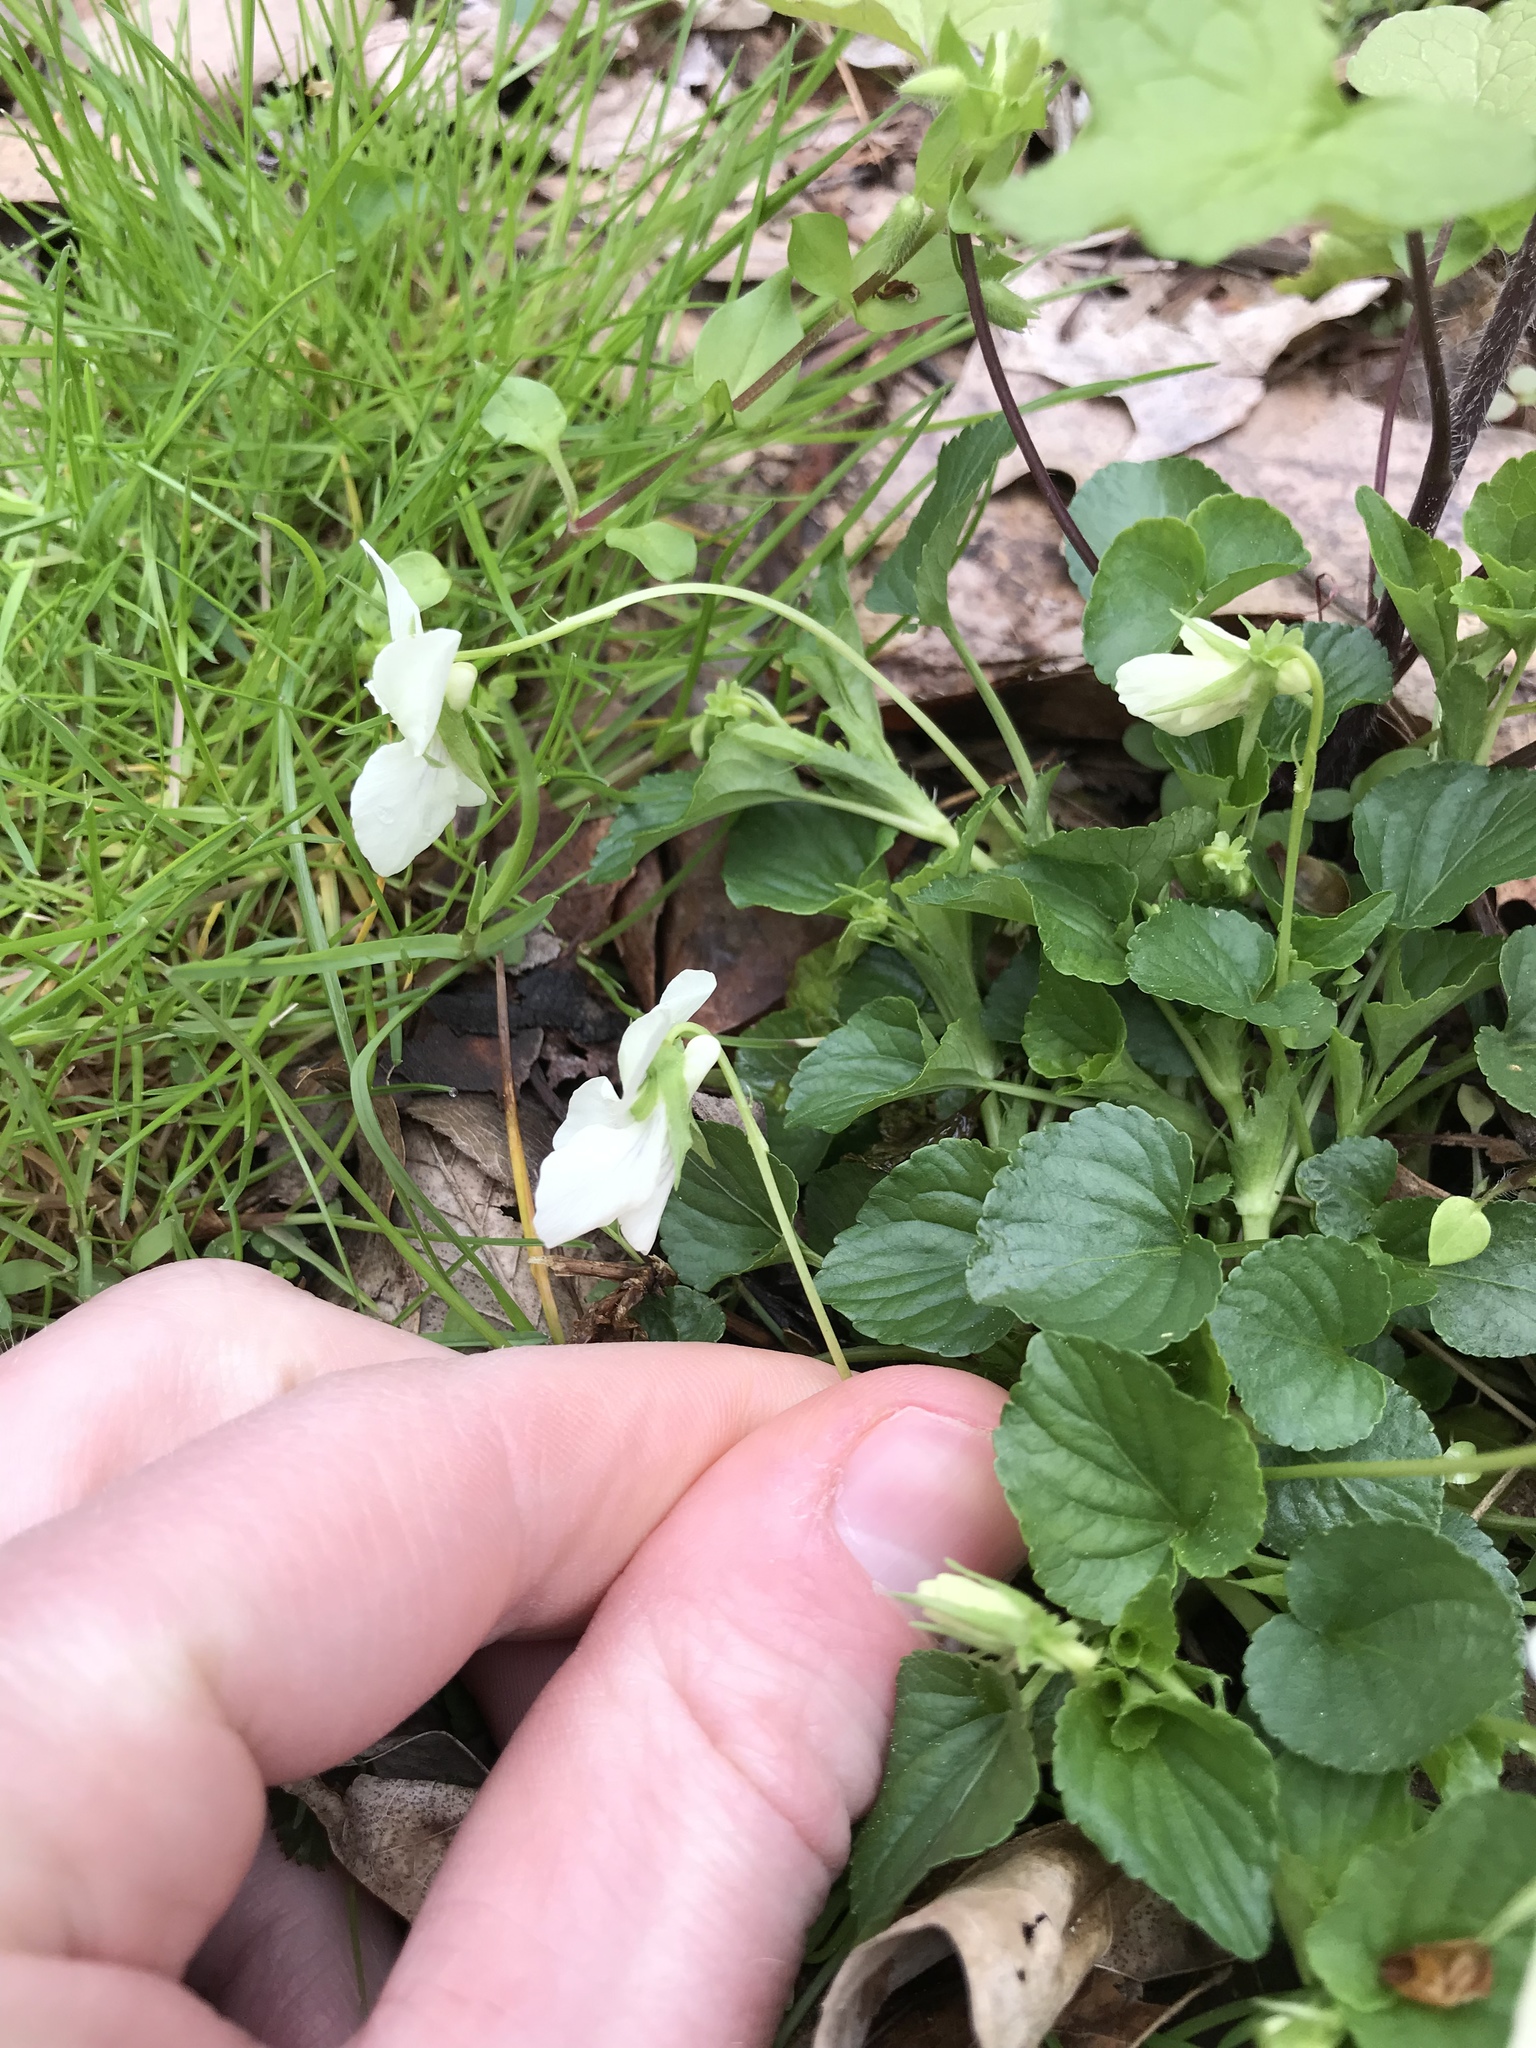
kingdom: Plantae
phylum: Tracheophyta
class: Magnoliopsida
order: Malpighiales
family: Violaceae
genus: Viola
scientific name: Viola striata
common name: Cream violet
